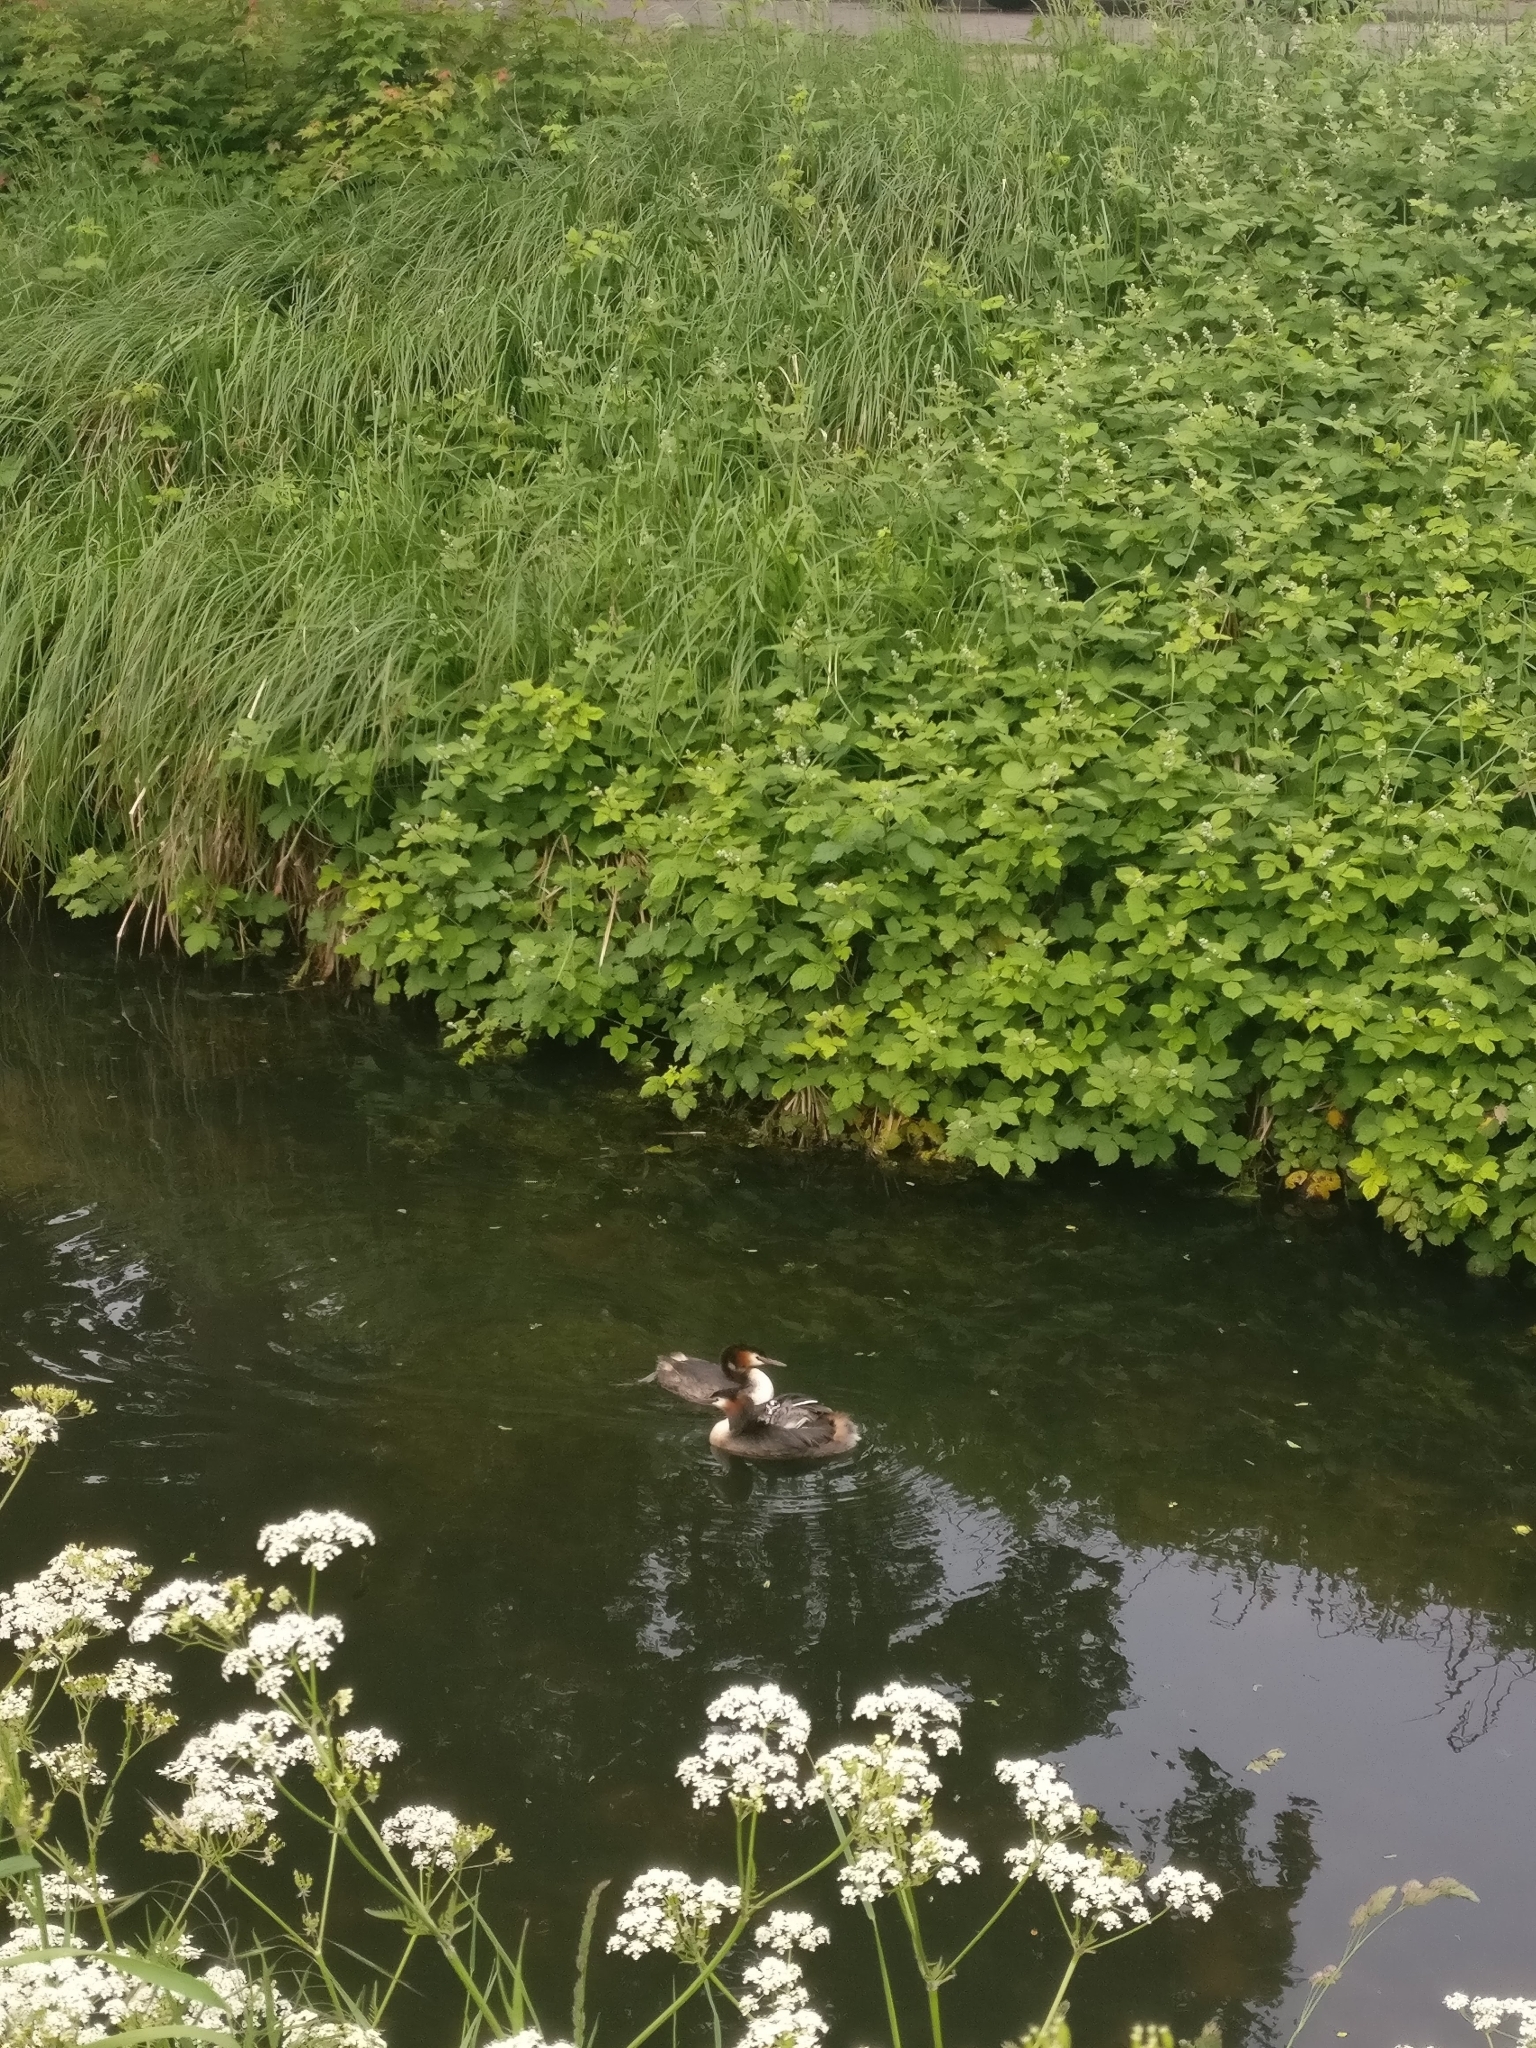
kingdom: Animalia
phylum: Chordata
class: Aves
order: Podicipediformes
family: Podicipedidae
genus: Podiceps
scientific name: Podiceps cristatus
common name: Great crested grebe
